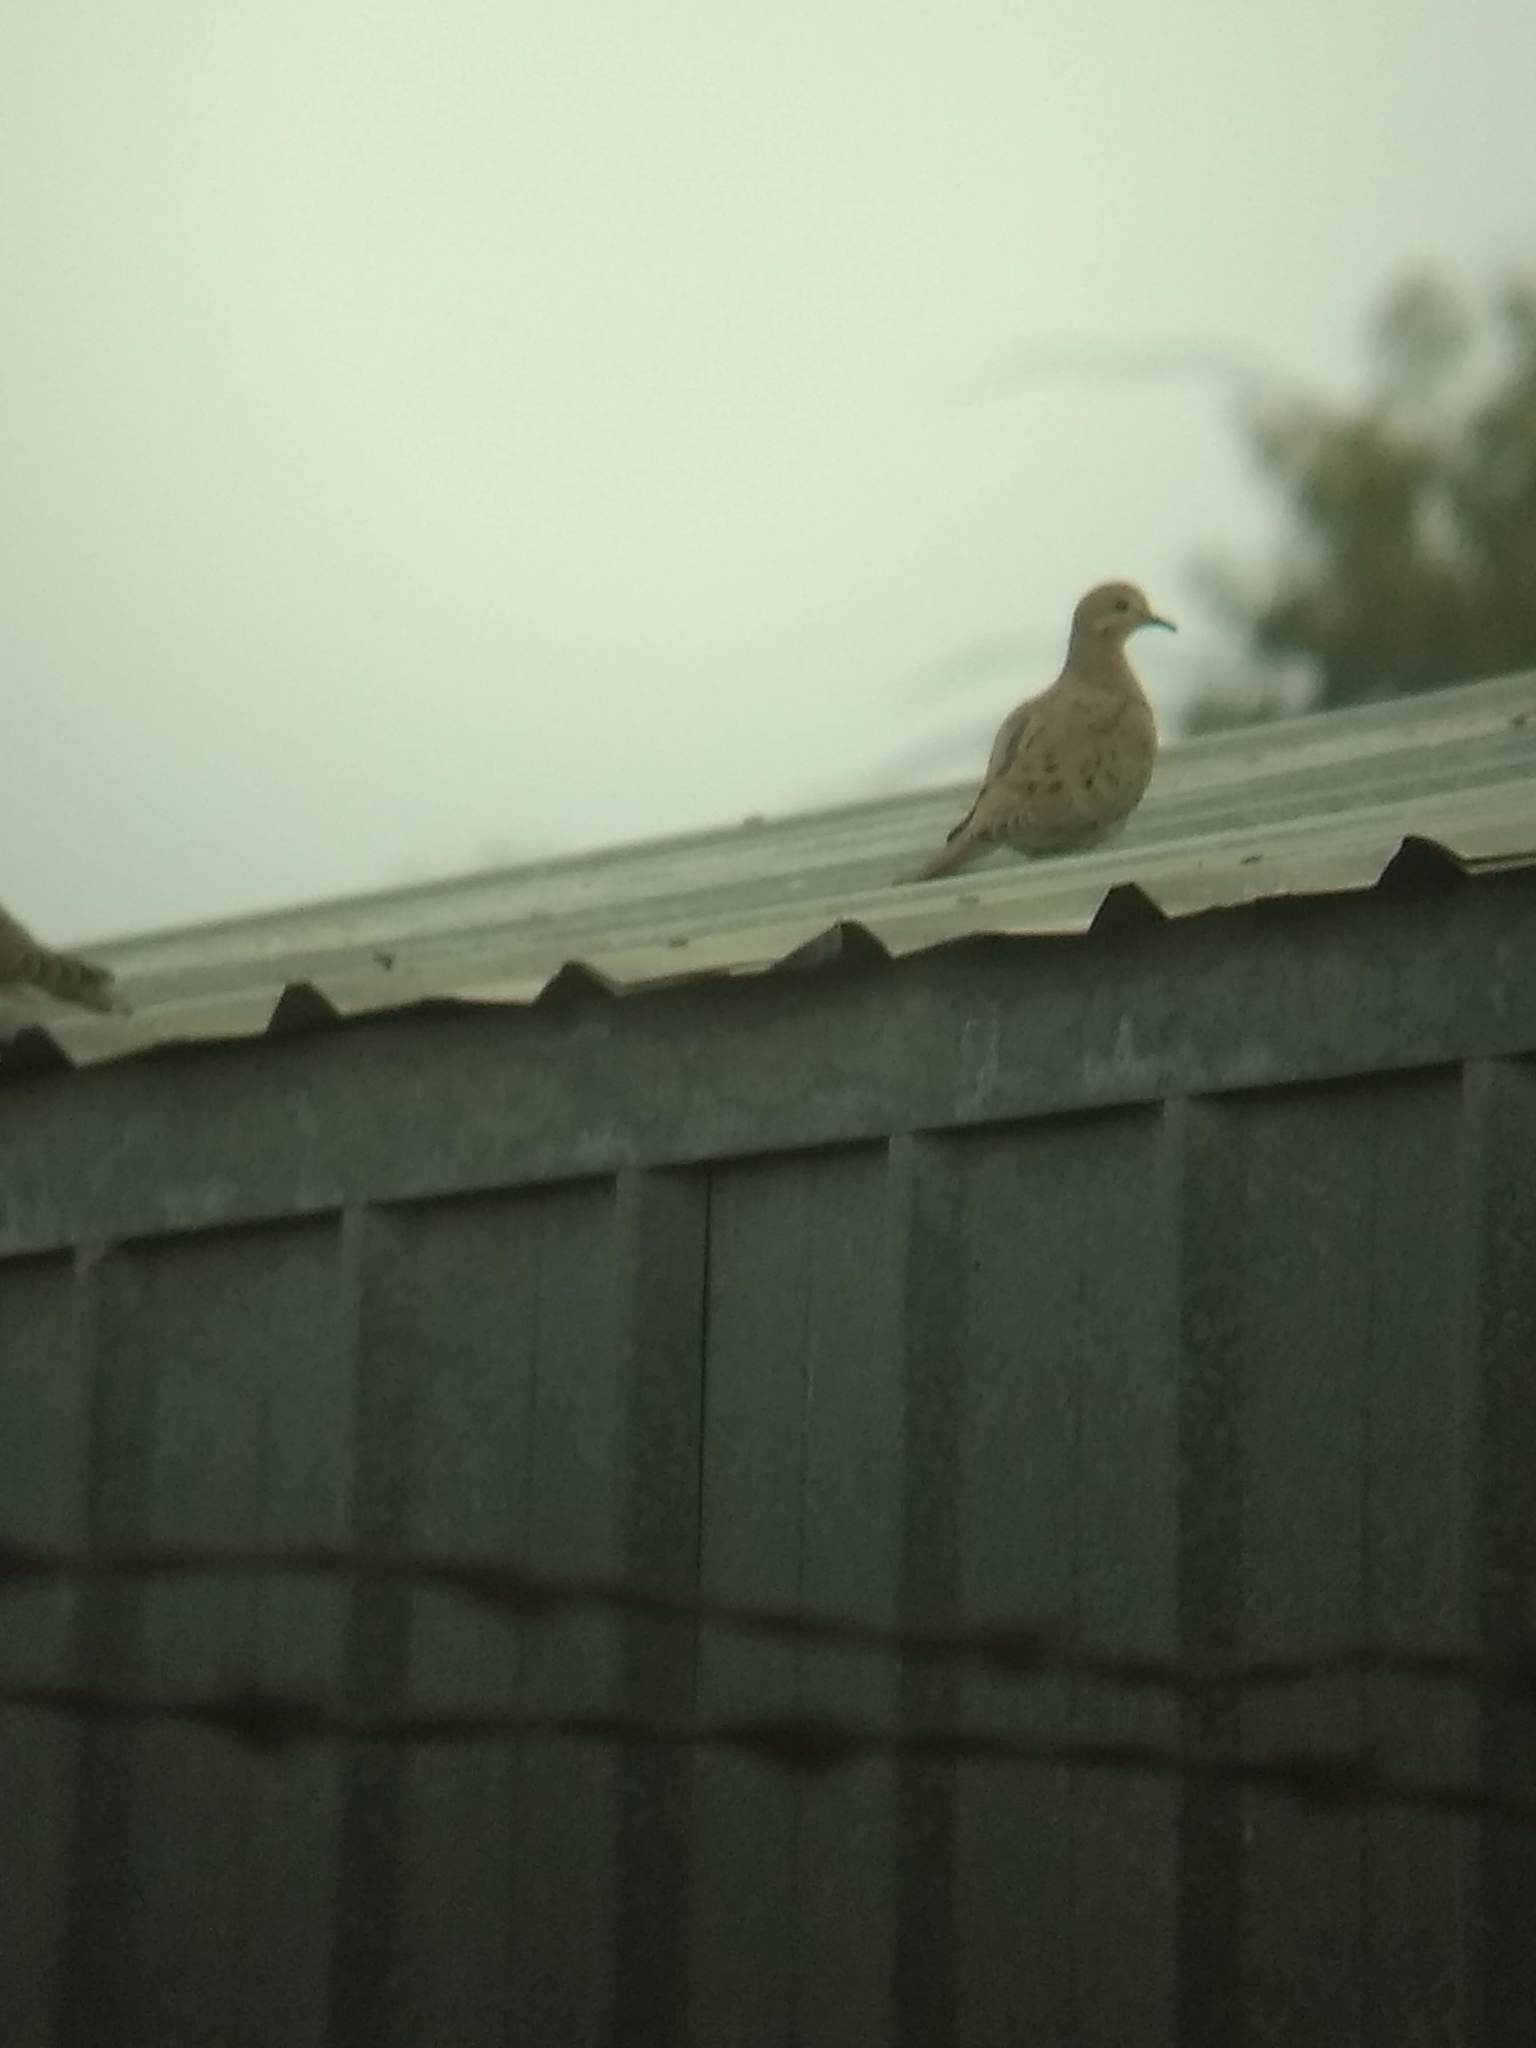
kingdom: Animalia
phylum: Chordata
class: Aves
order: Columbiformes
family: Columbidae
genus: Zenaida
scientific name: Zenaida macroura
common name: Mourning dove
